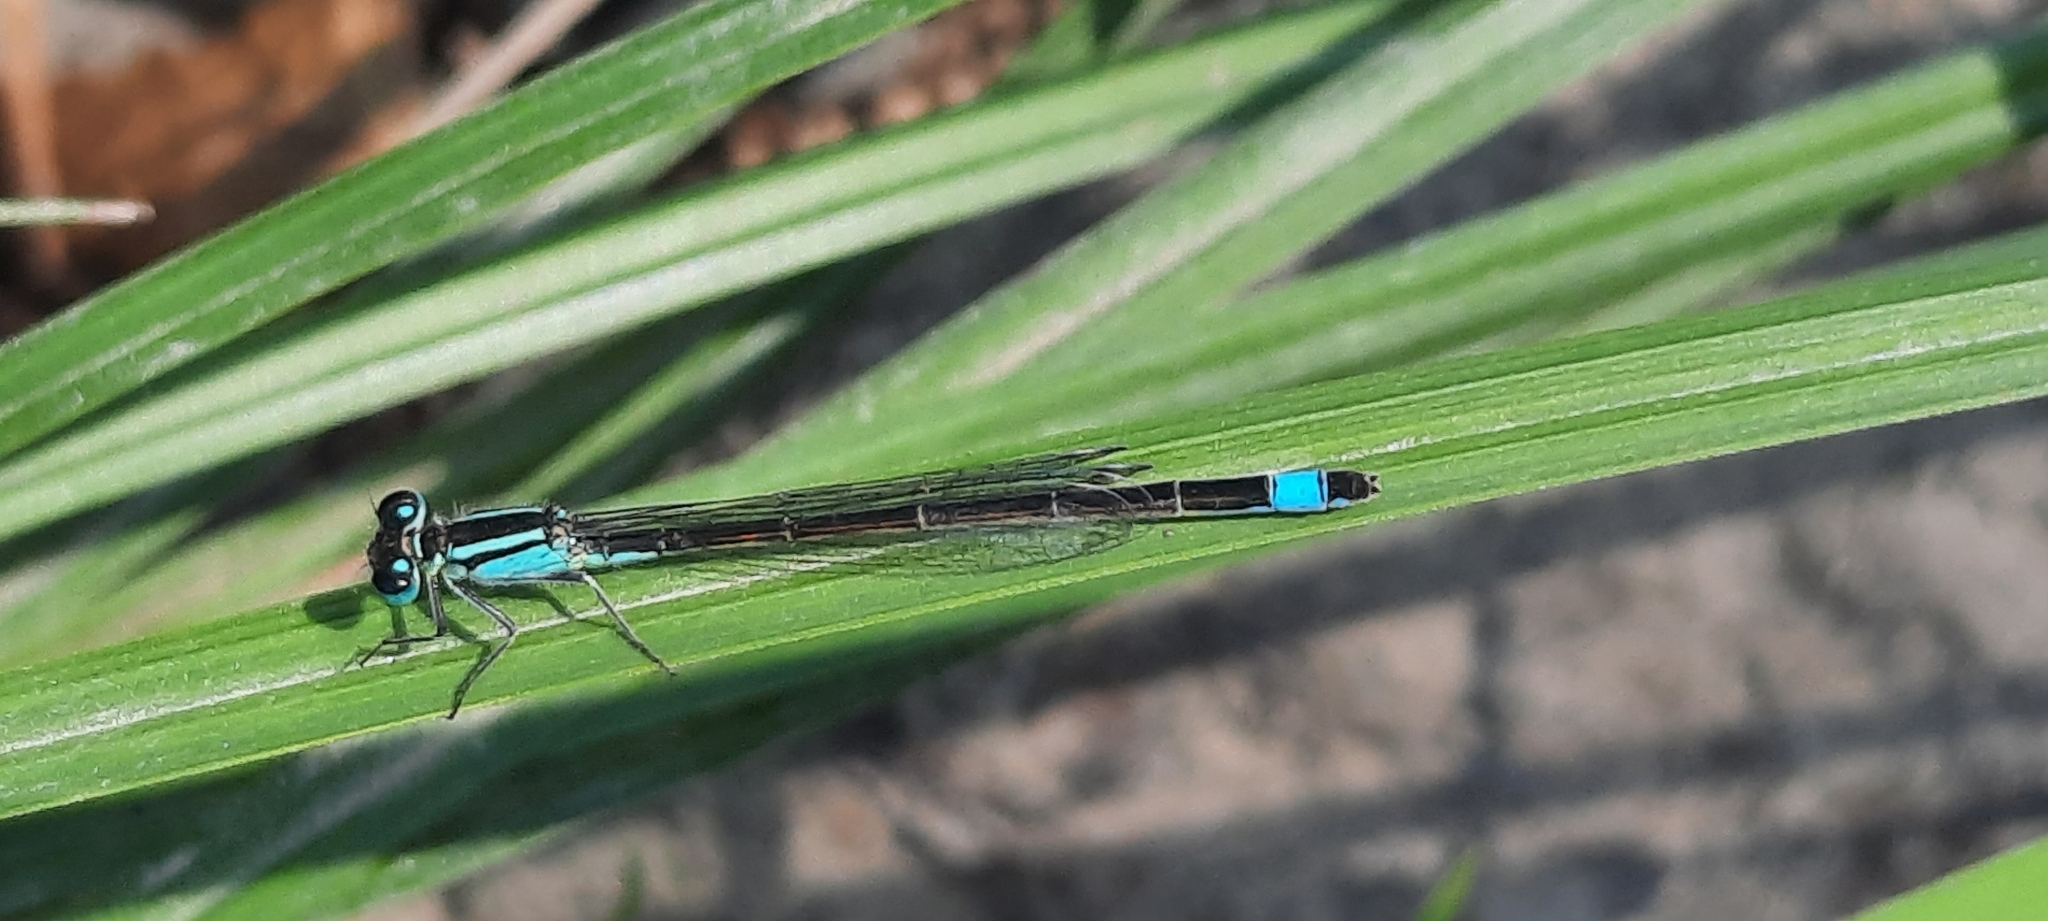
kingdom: Animalia
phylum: Arthropoda
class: Insecta
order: Odonata
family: Coenagrionidae
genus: Ischnura
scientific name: Ischnura elegans
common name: Blue-tailed damselfly
